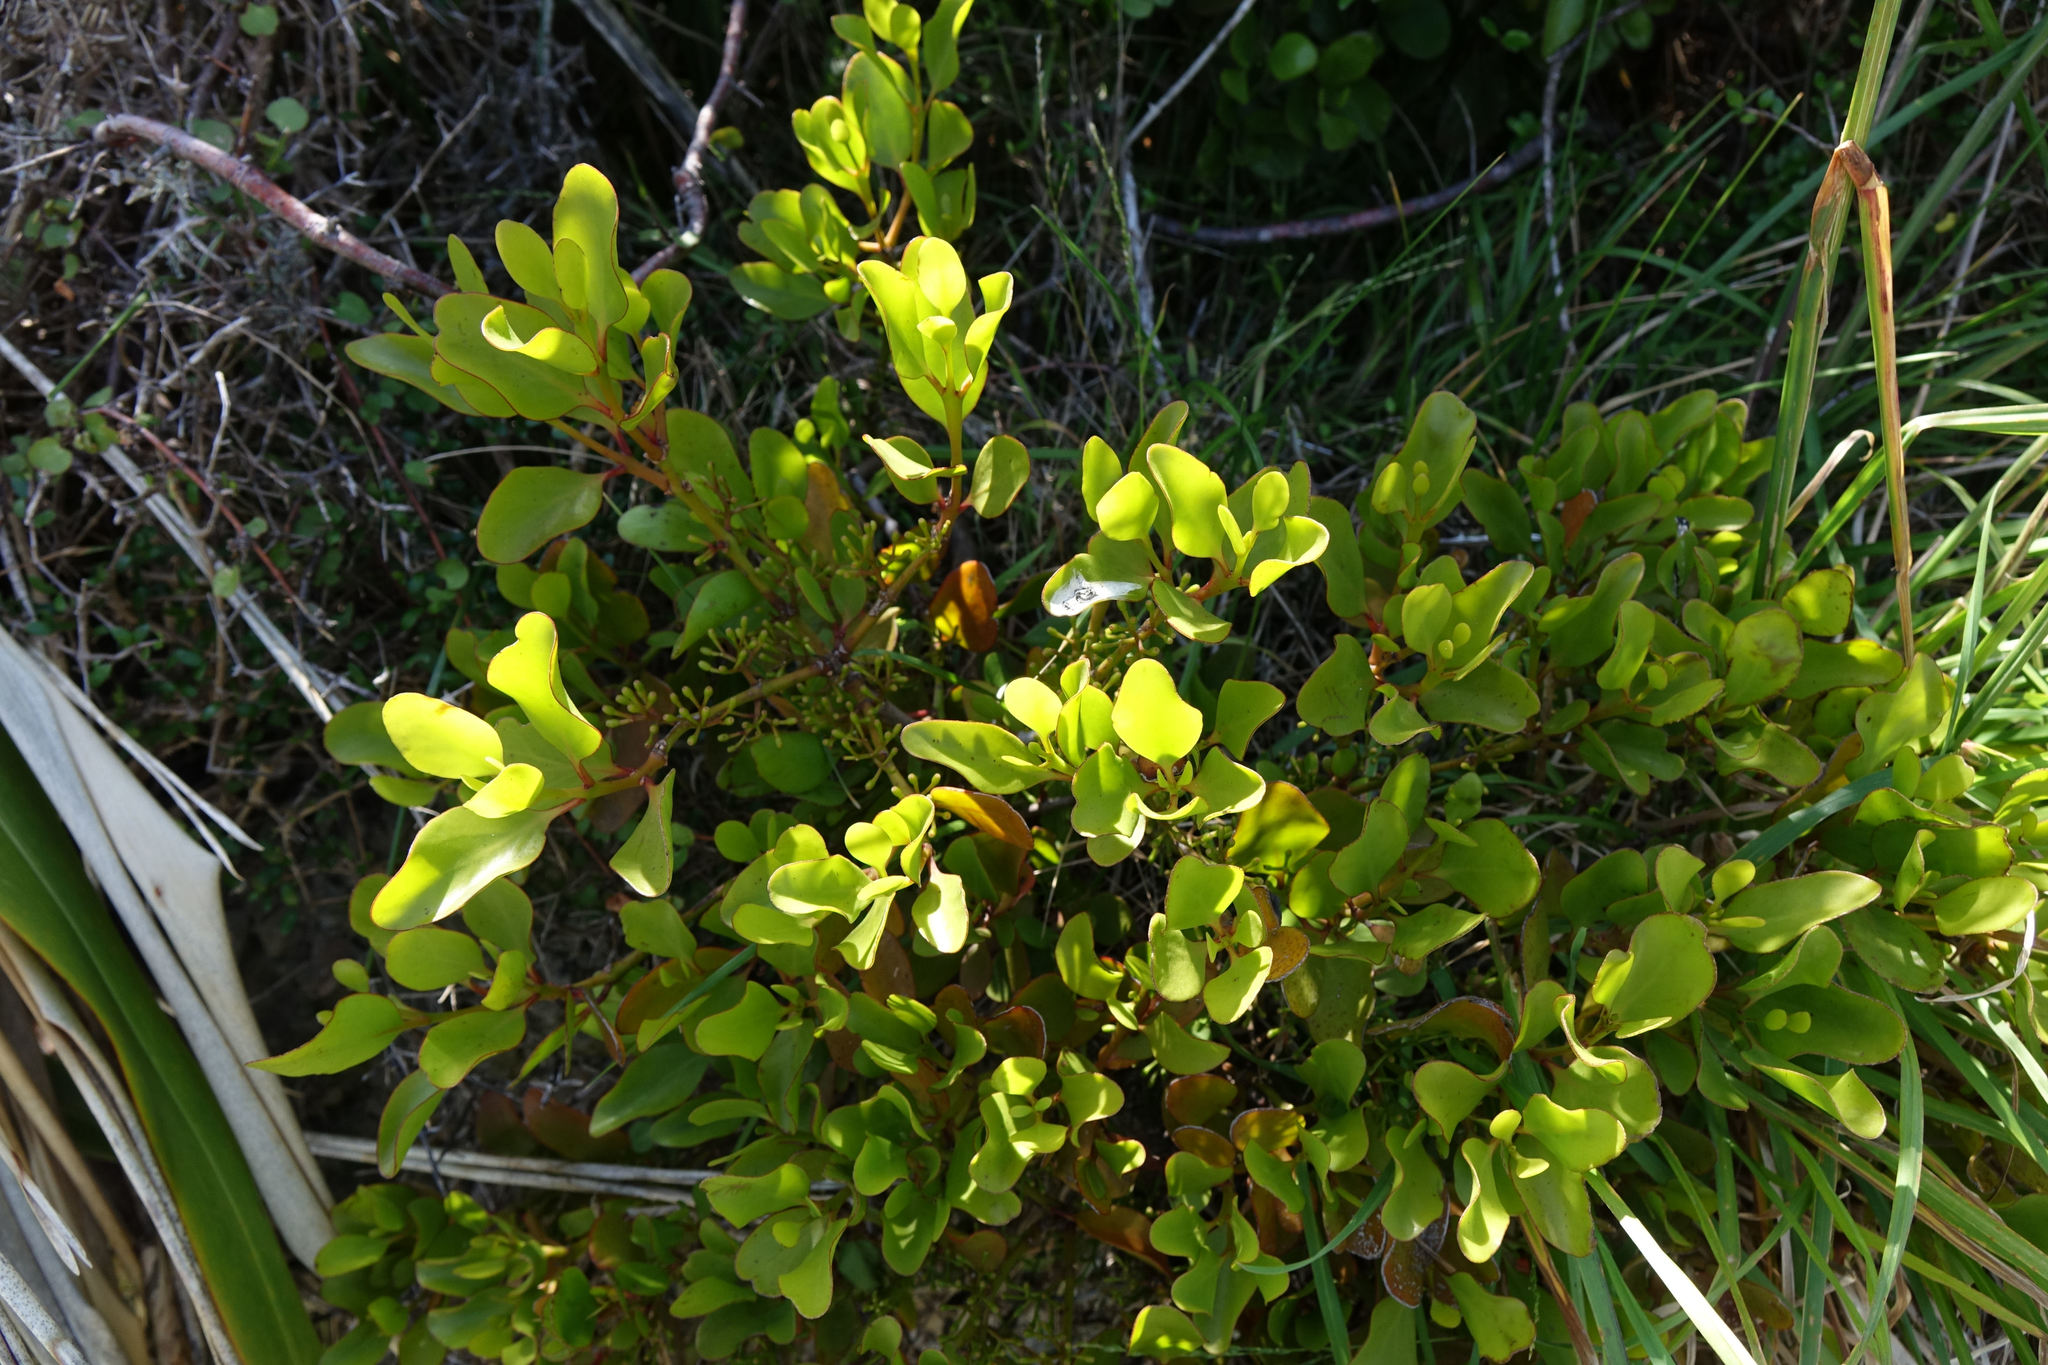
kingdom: Plantae
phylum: Tracheophyta
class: Magnoliopsida
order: Santalales
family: Loranthaceae
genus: Ileostylus
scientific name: Ileostylus micranthus
